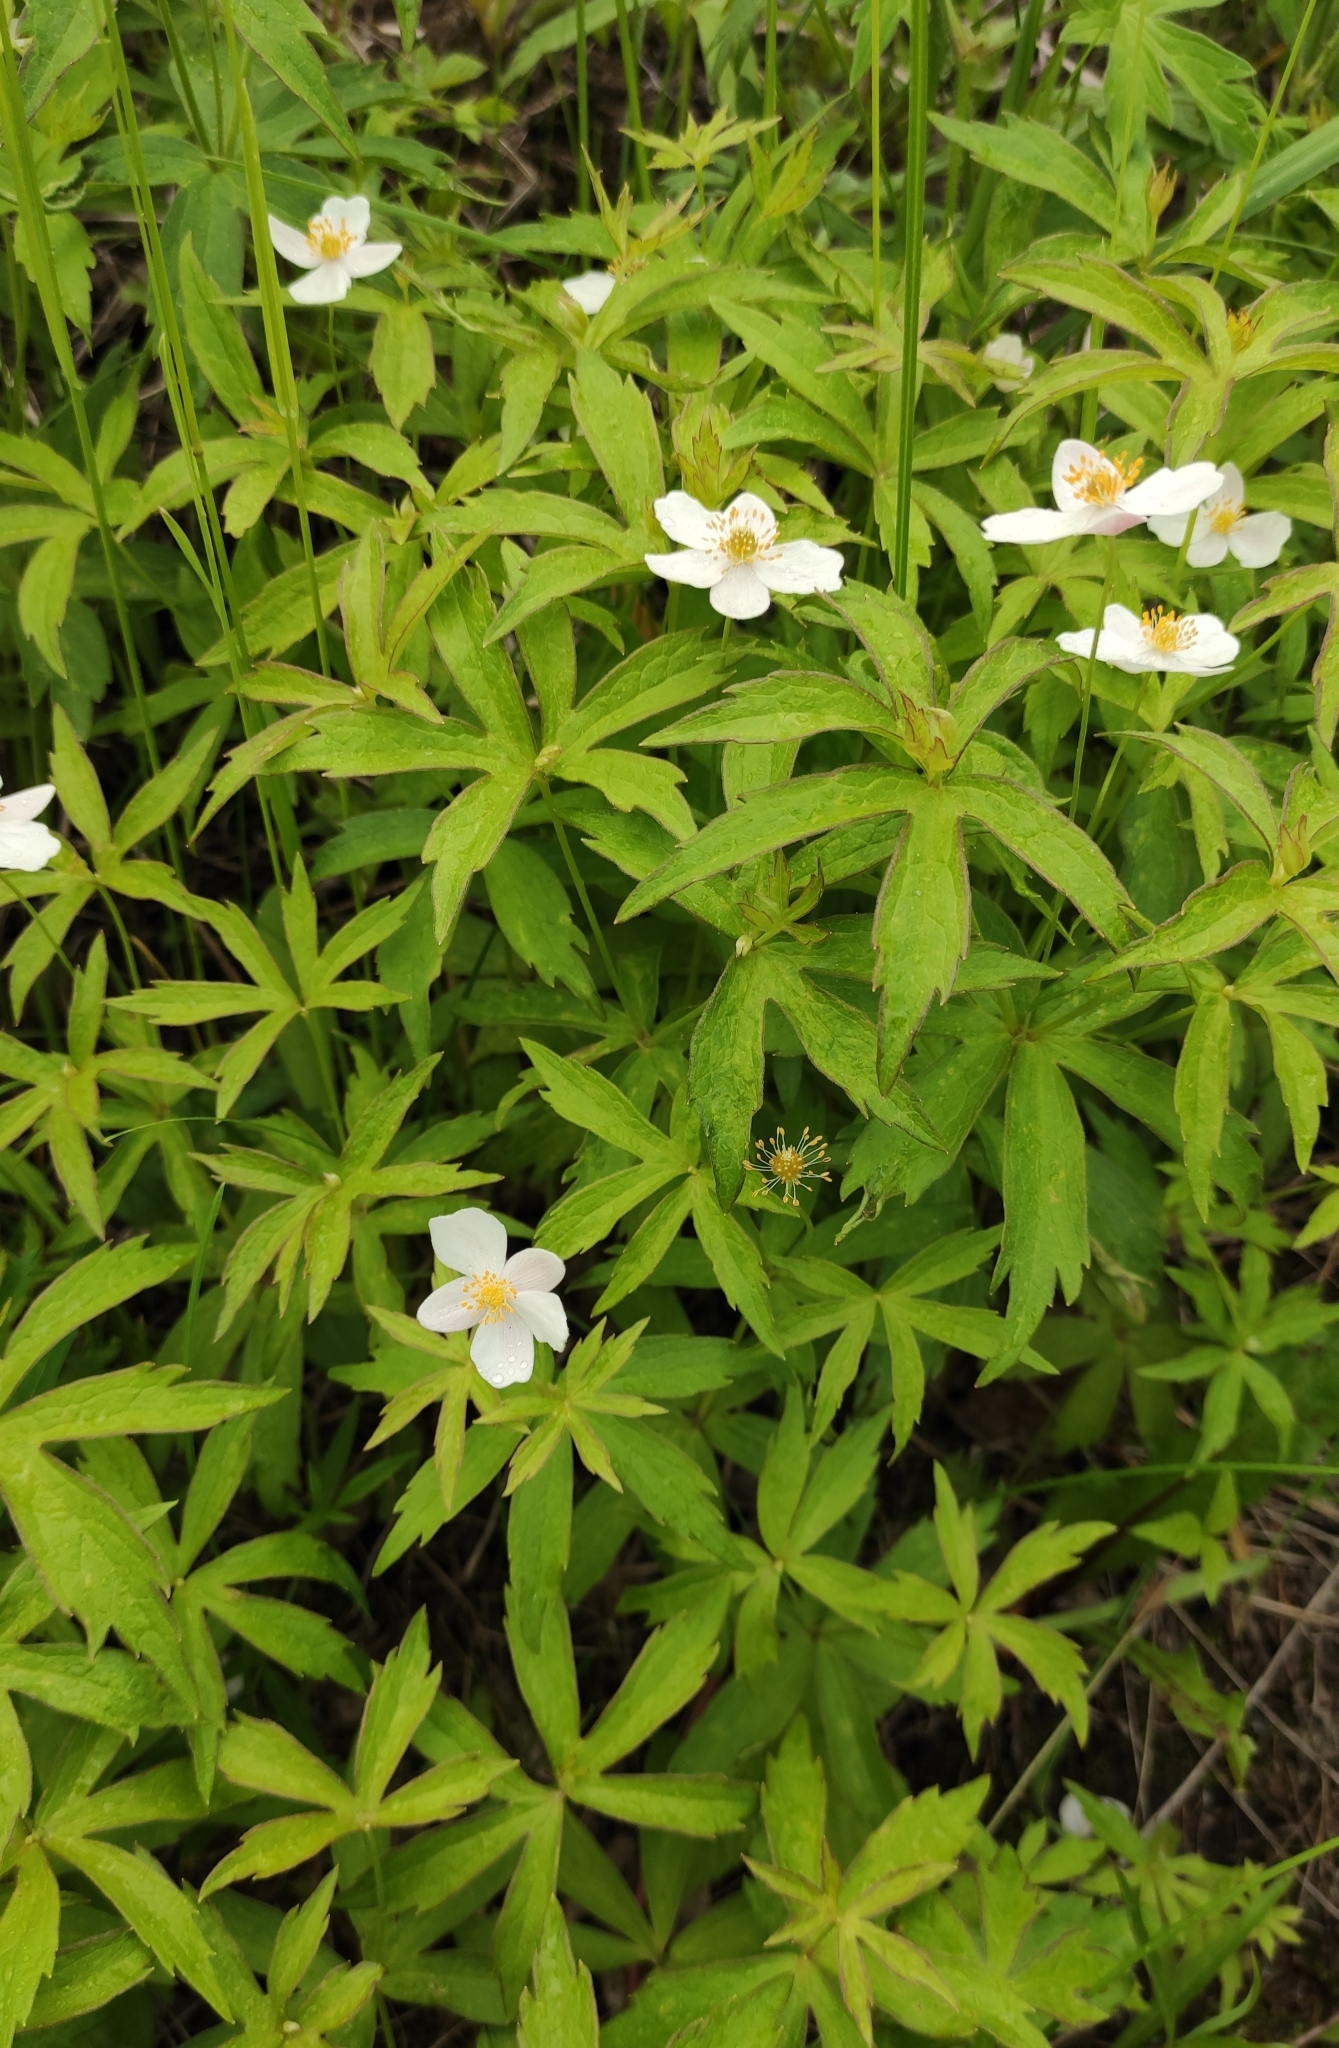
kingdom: Plantae
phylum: Tracheophyta
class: Magnoliopsida
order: Ranunculales
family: Ranunculaceae
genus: Anemonastrum
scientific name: Anemonastrum dichotomum
